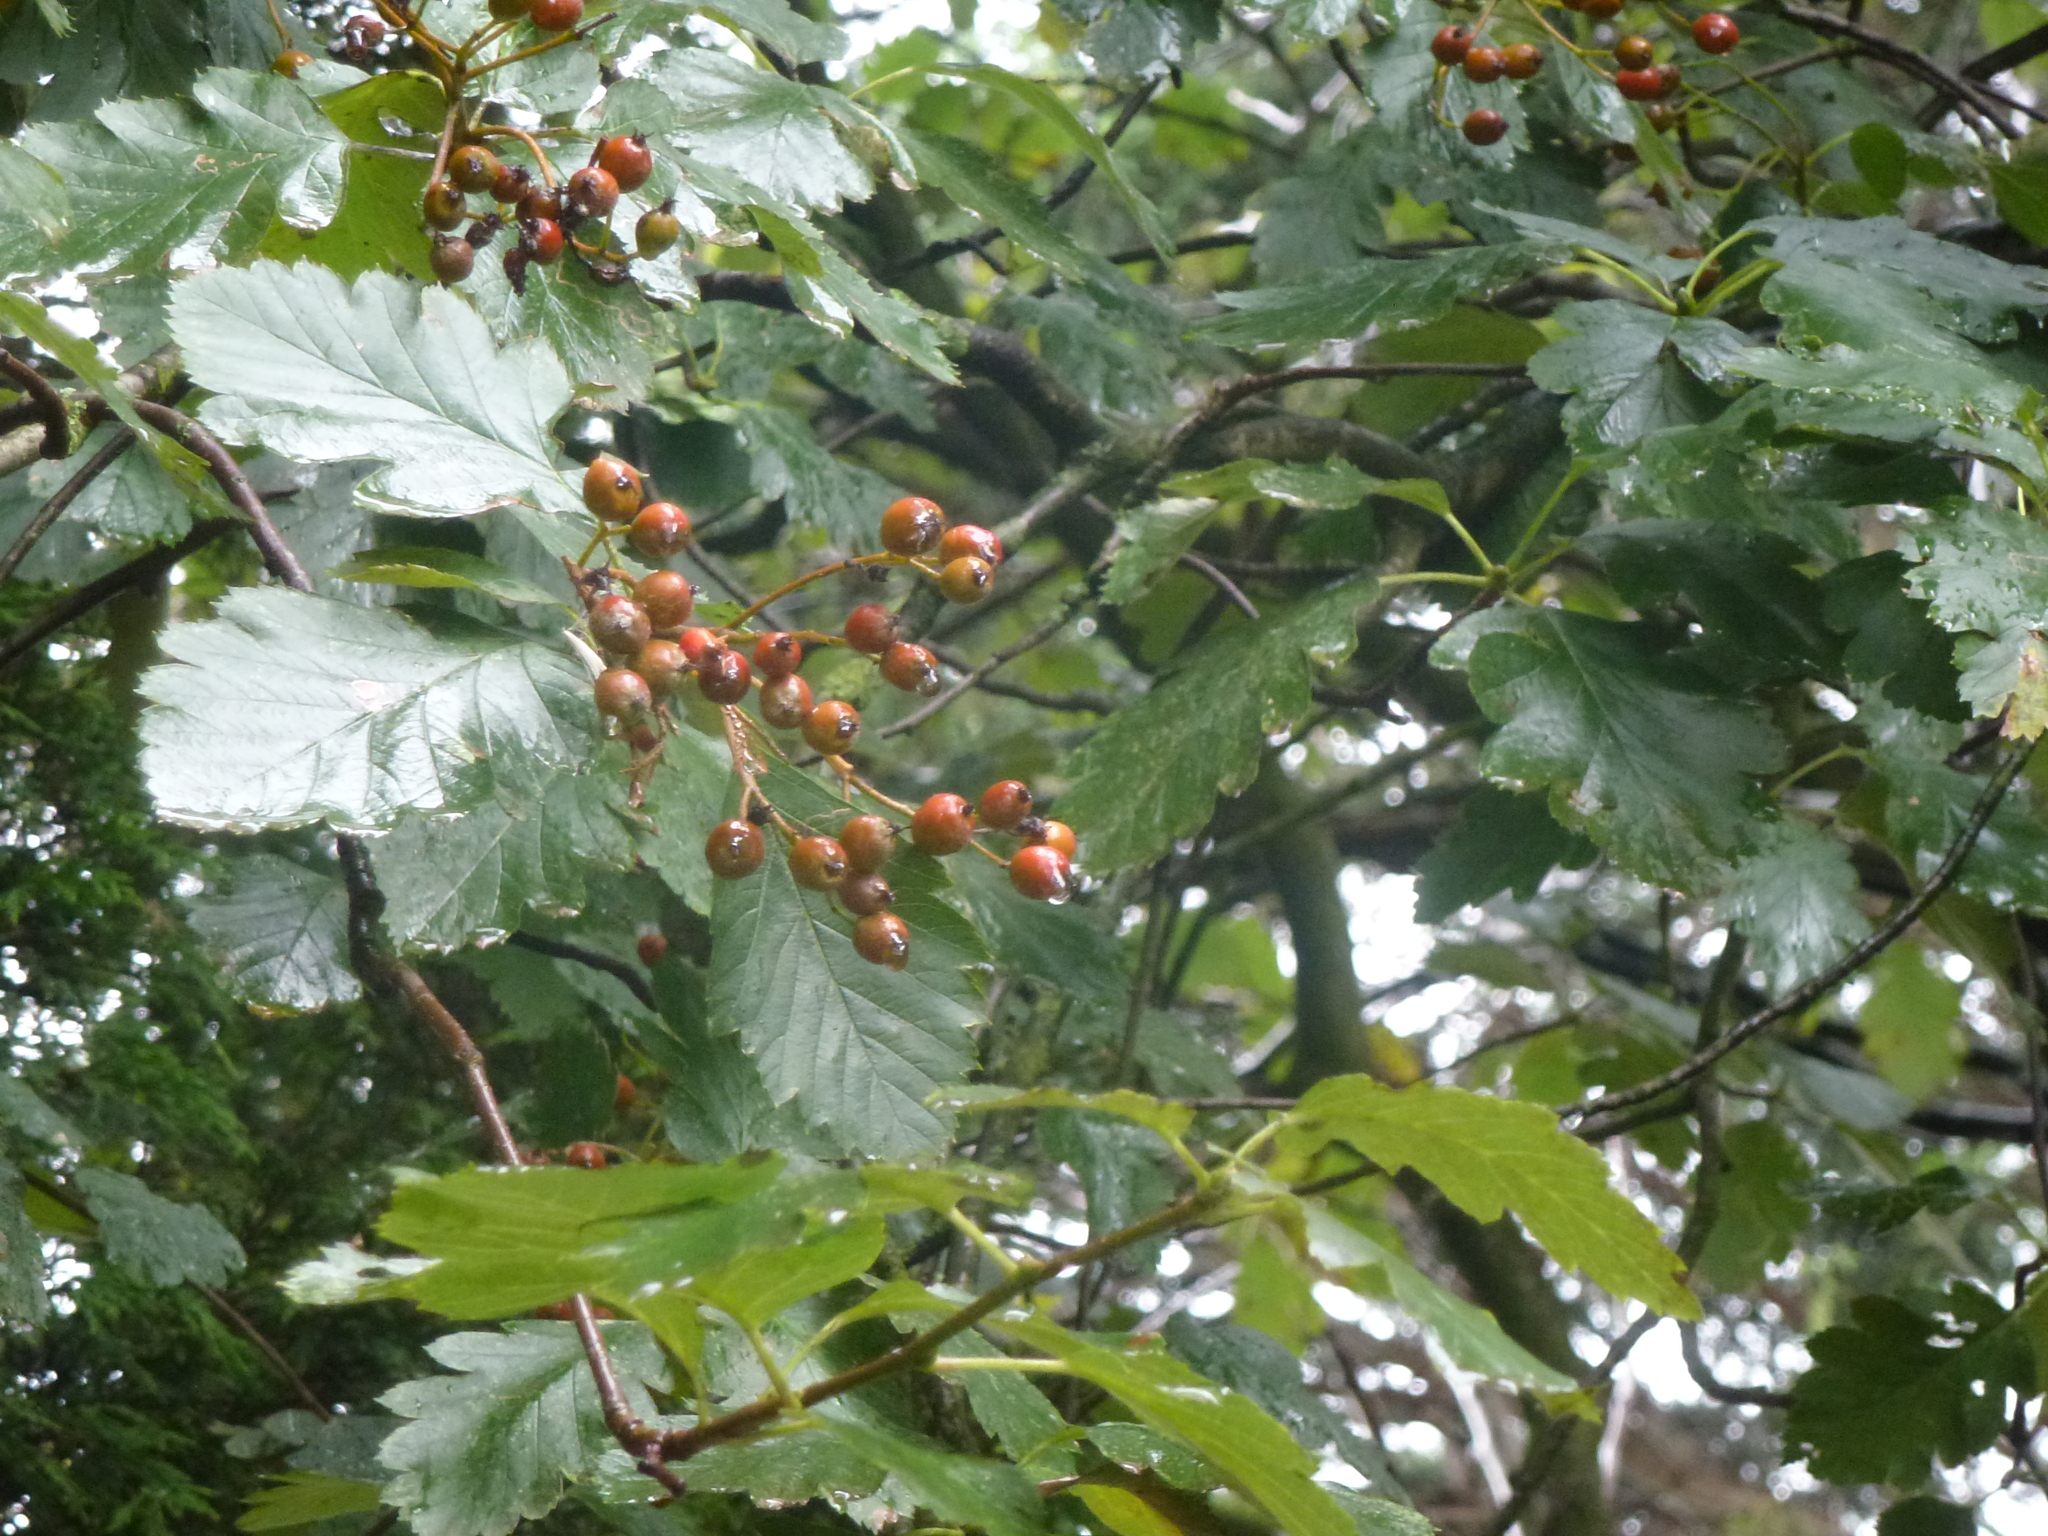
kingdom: Plantae
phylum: Tracheophyta
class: Magnoliopsida
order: Rosales
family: Rosaceae
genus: Scandosorbus
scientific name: Scandosorbus intermedia
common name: Swedish whitebeam
